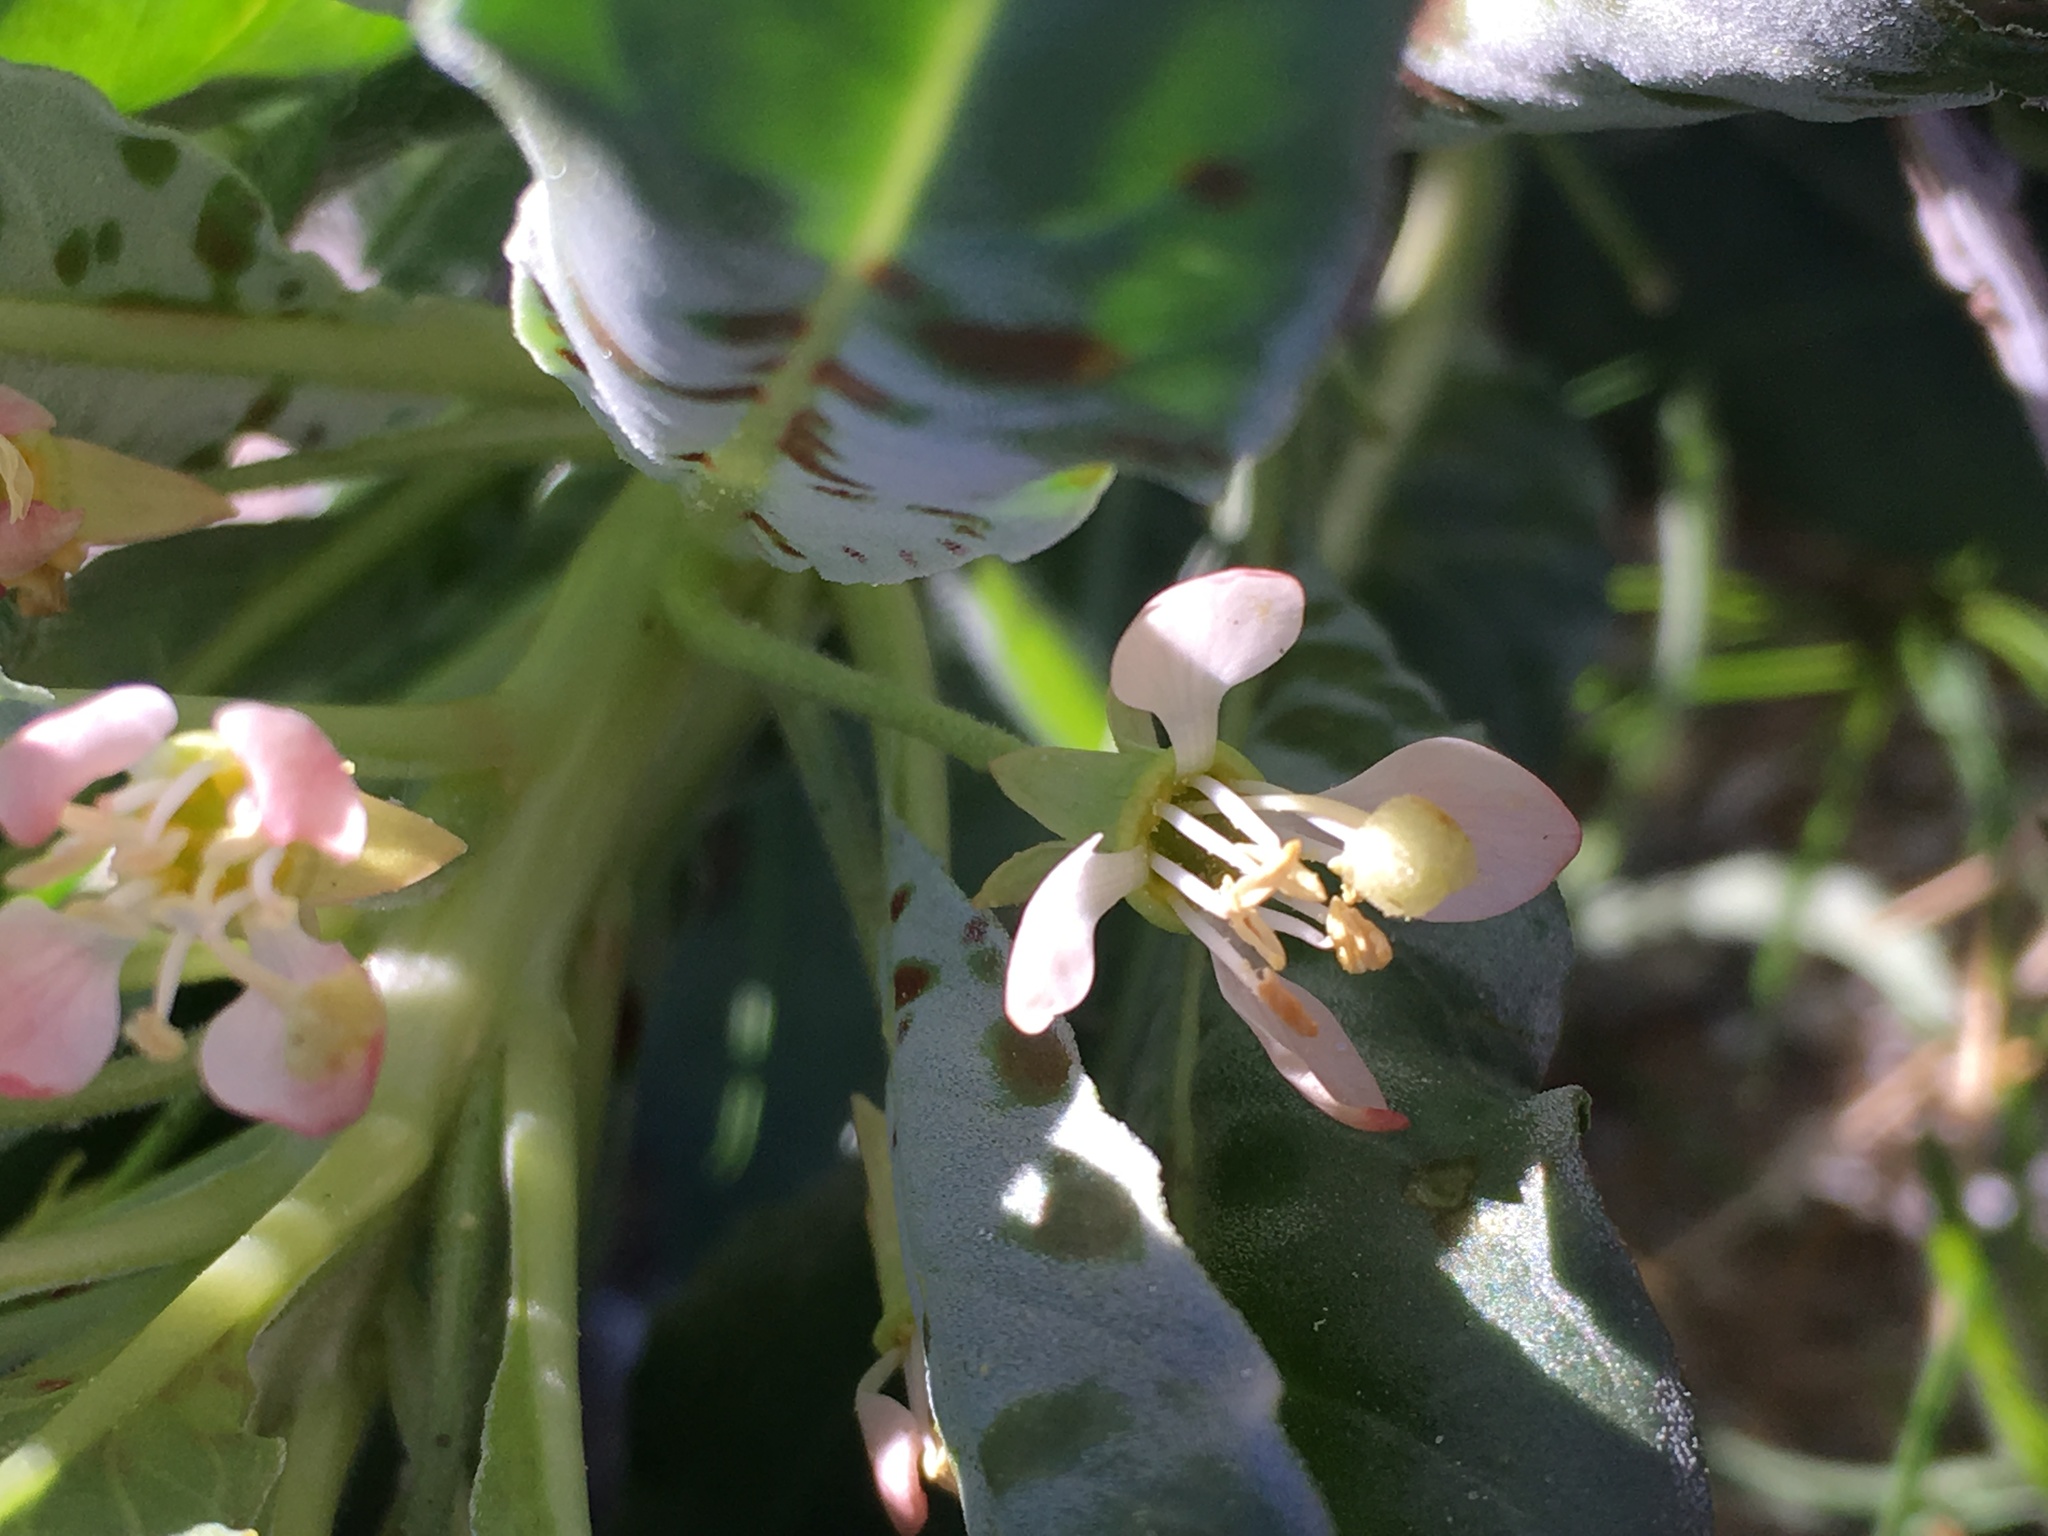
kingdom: Plantae
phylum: Tracheophyta
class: Magnoliopsida
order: Myrtales
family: Onagraceae
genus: Eremothera
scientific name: Eremothera boothii
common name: Booth's evening primrose
